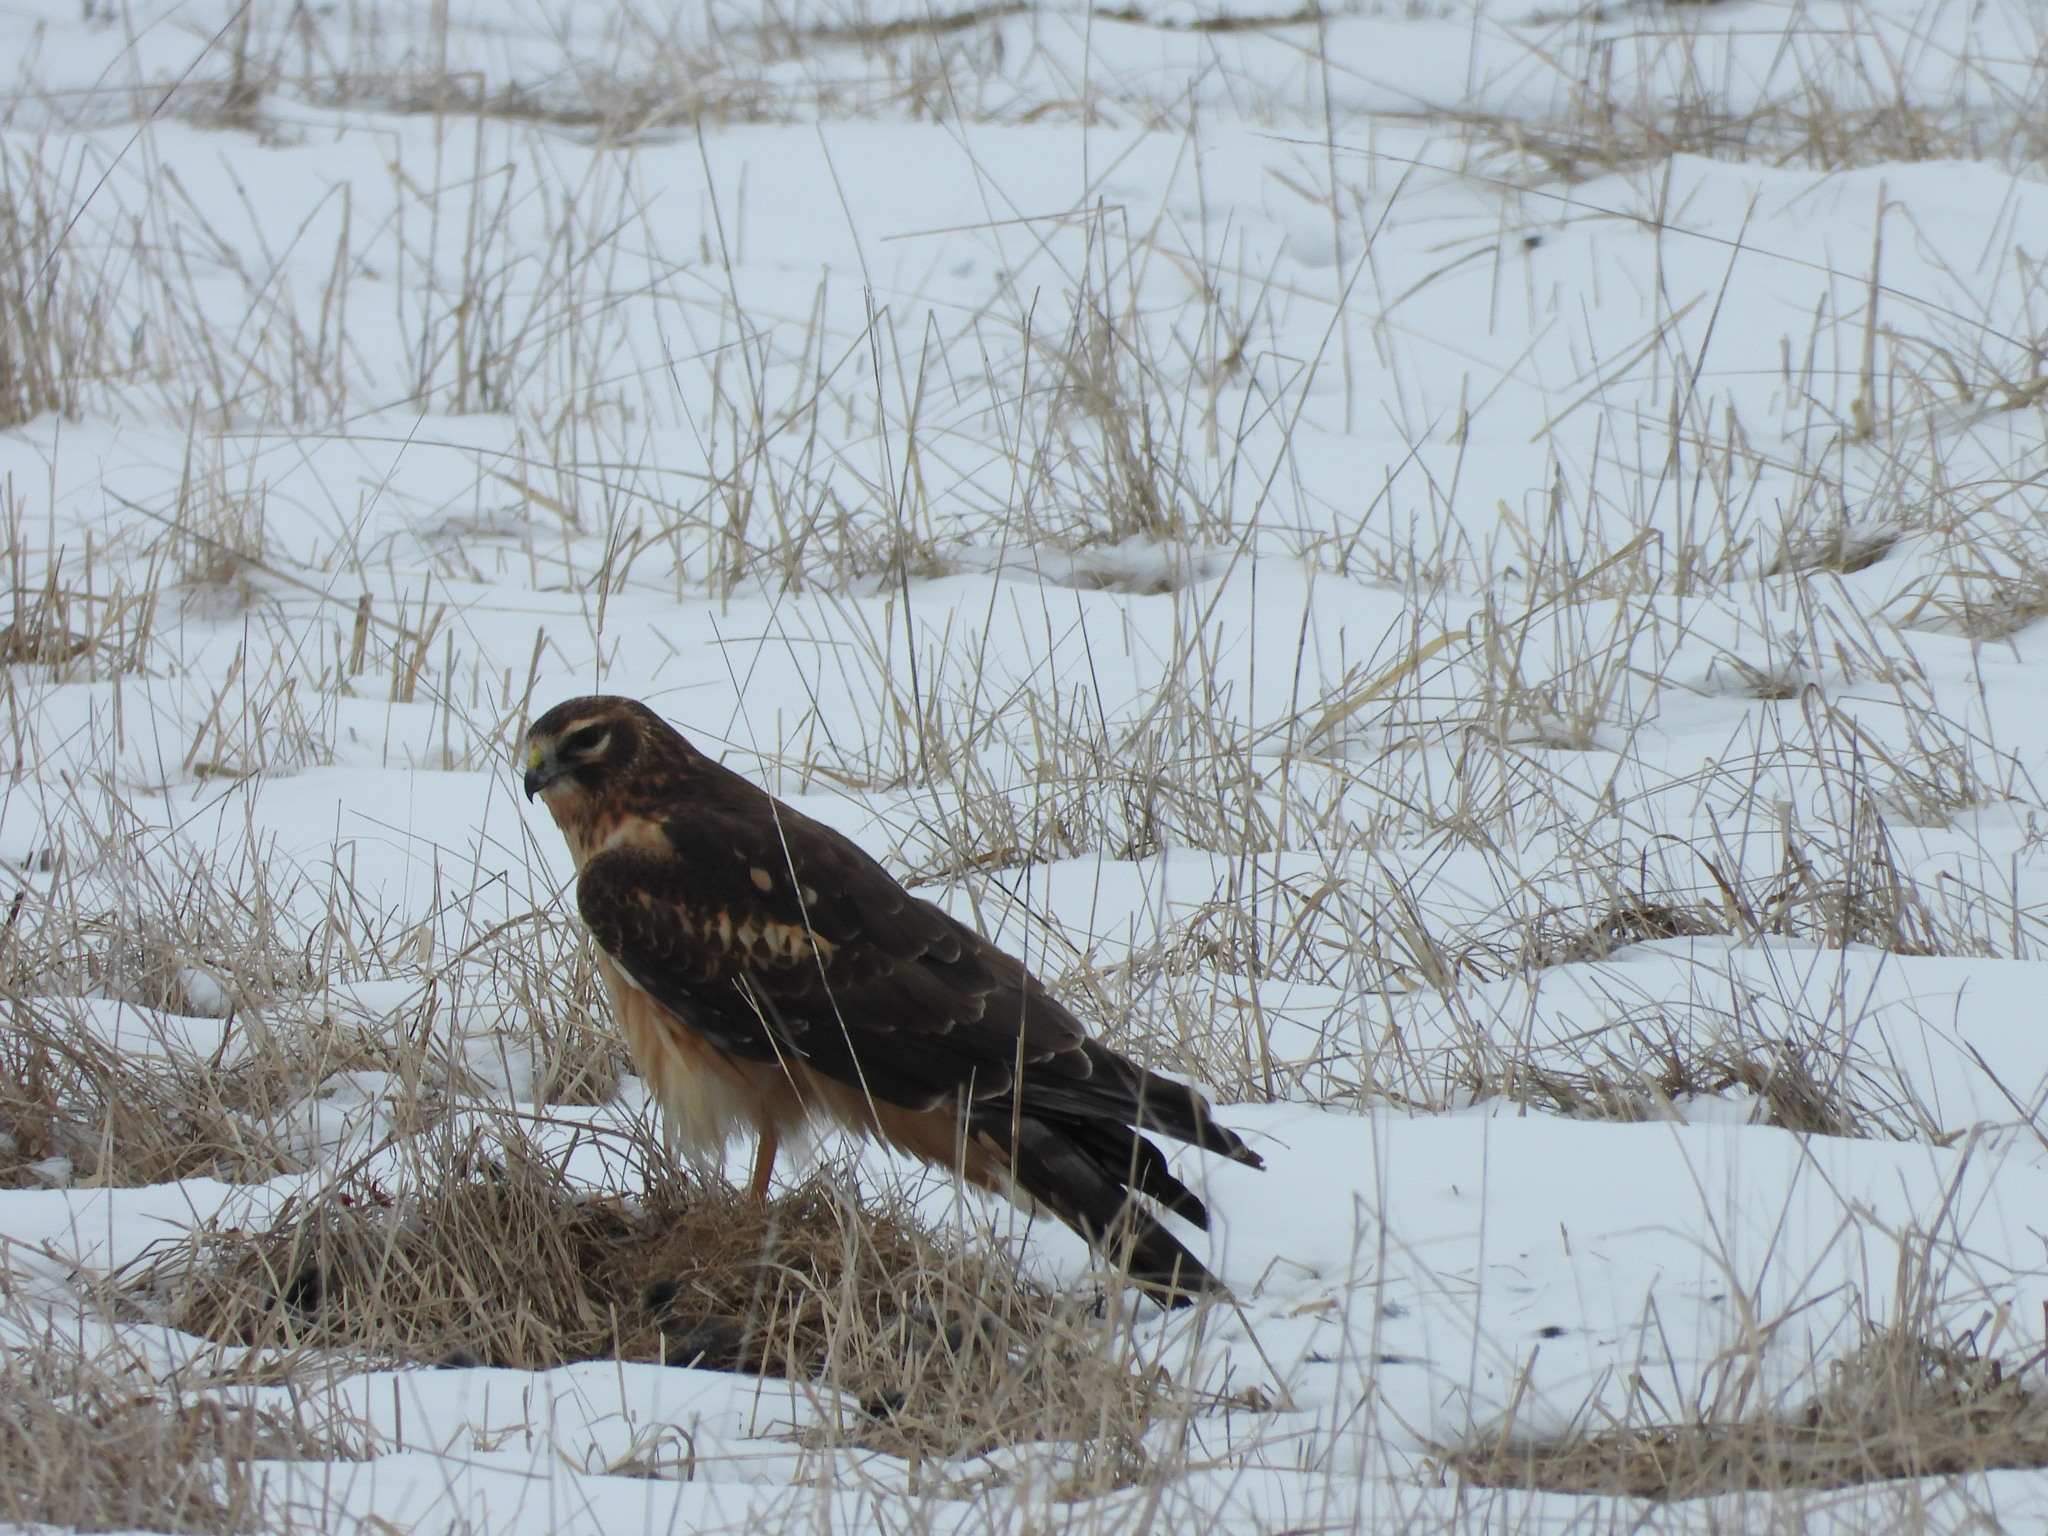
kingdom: Animalia
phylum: Chordata
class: Aves
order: Accipitriformes
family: Accipitridae
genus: Circus
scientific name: Circus cyaneus
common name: Hen harrier
